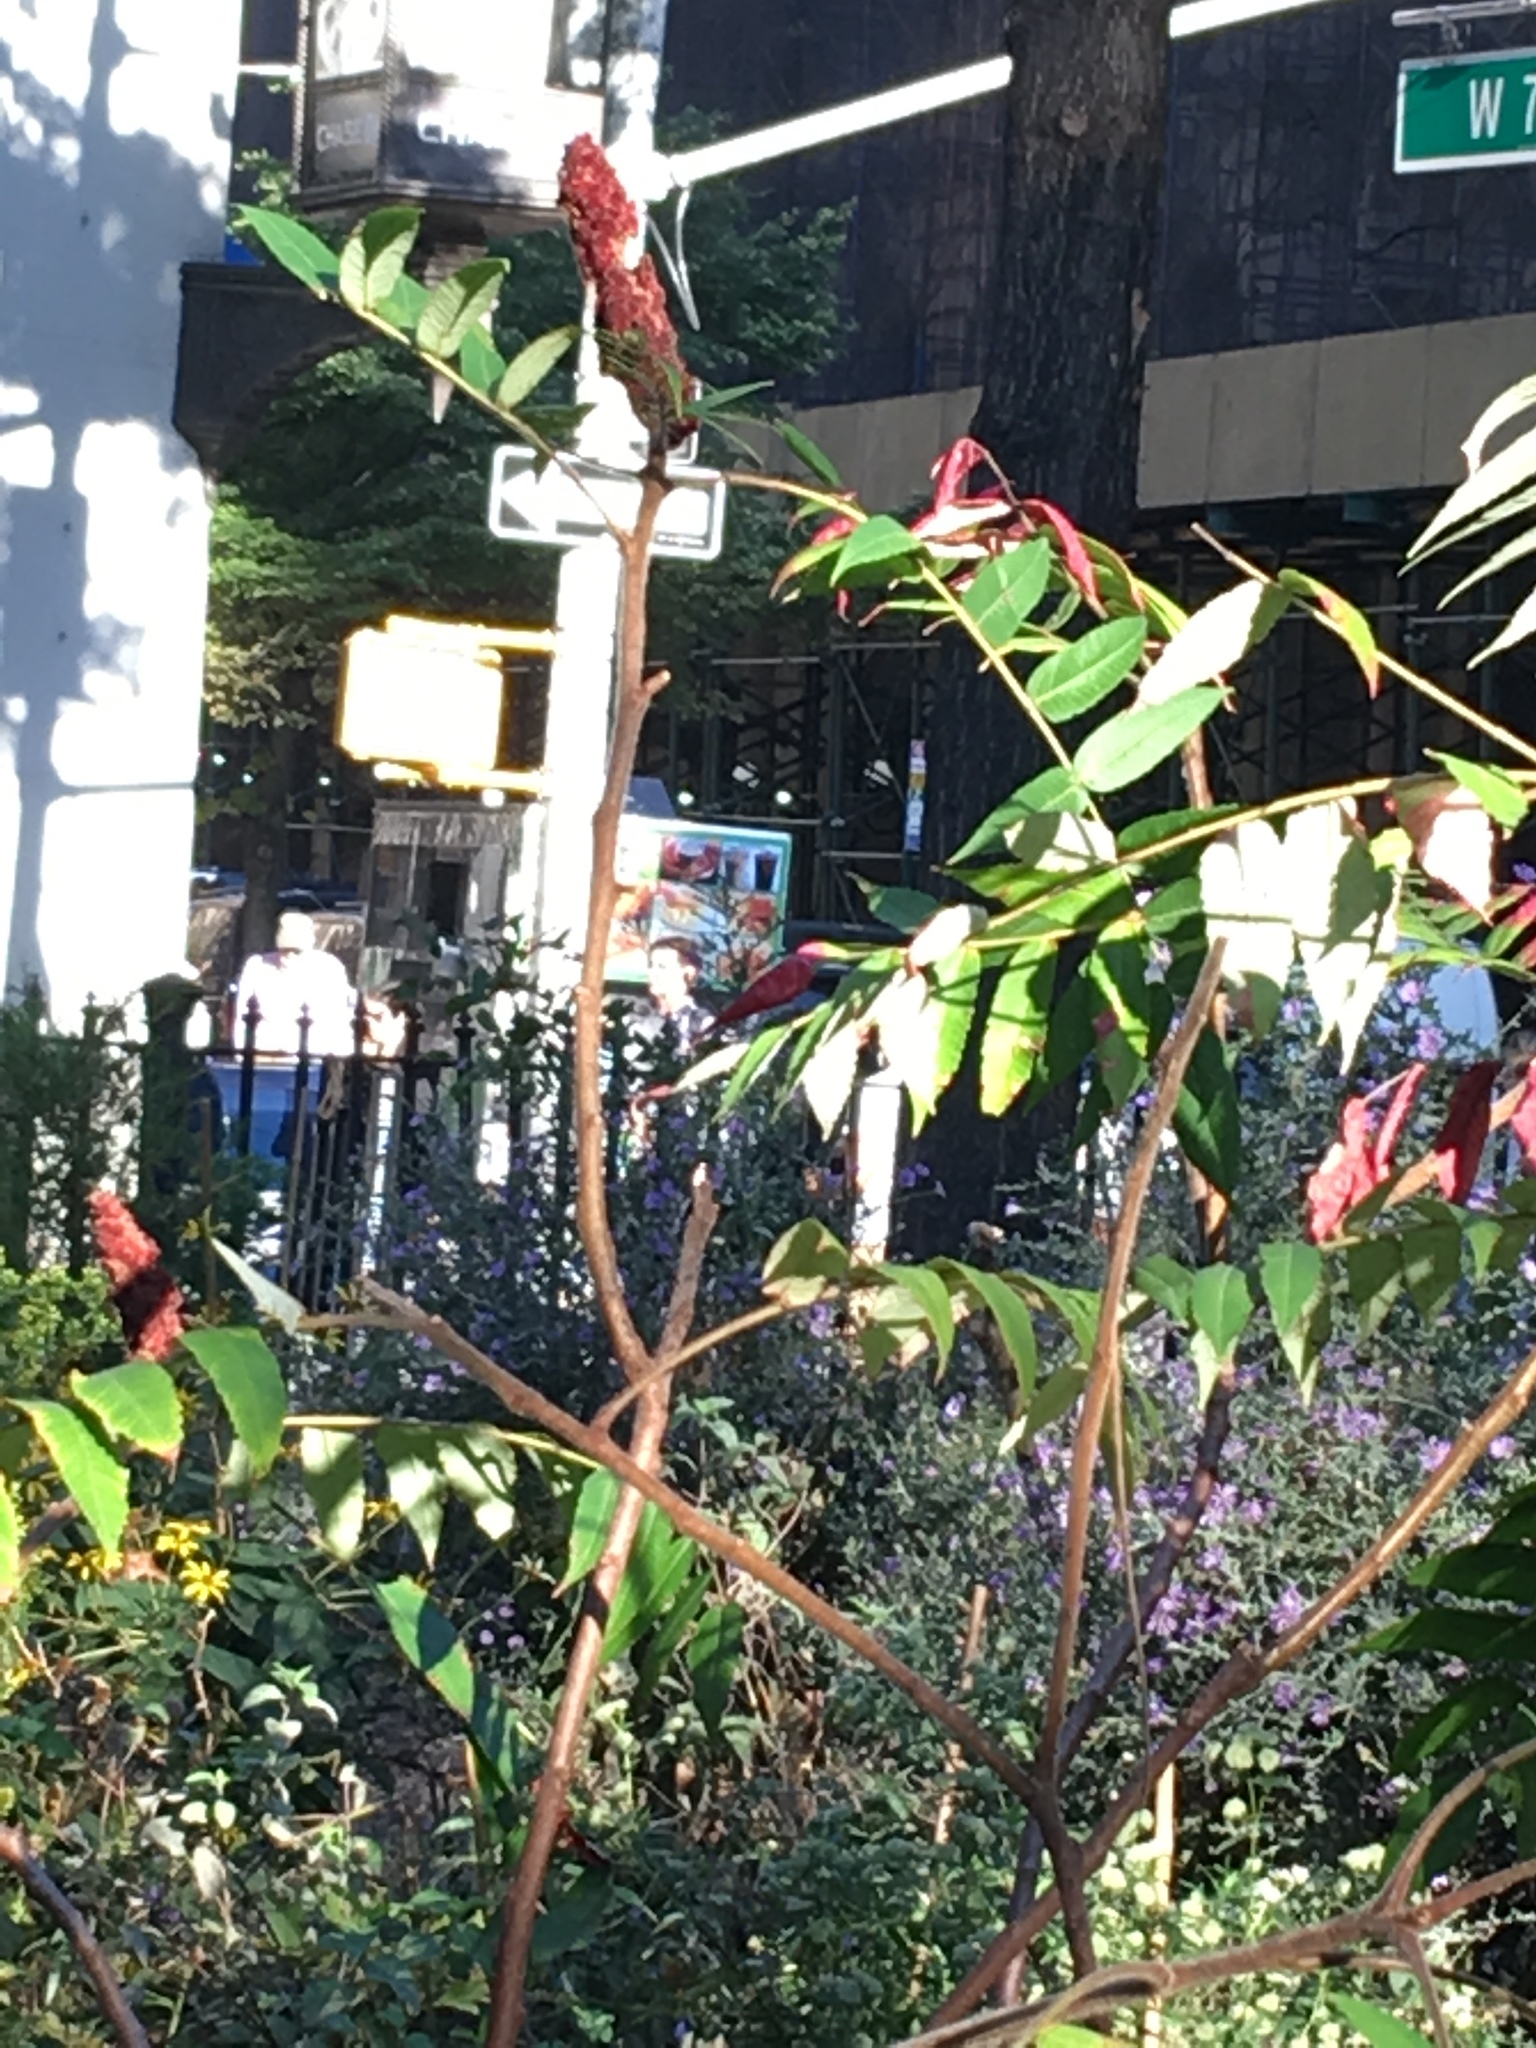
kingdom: Plantae
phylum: Tracheophyta
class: Magnoliopsida
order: Sapindales
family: Anacardiaceae
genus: Rhus
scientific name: Rhus typhina
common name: Staghorn sumac
